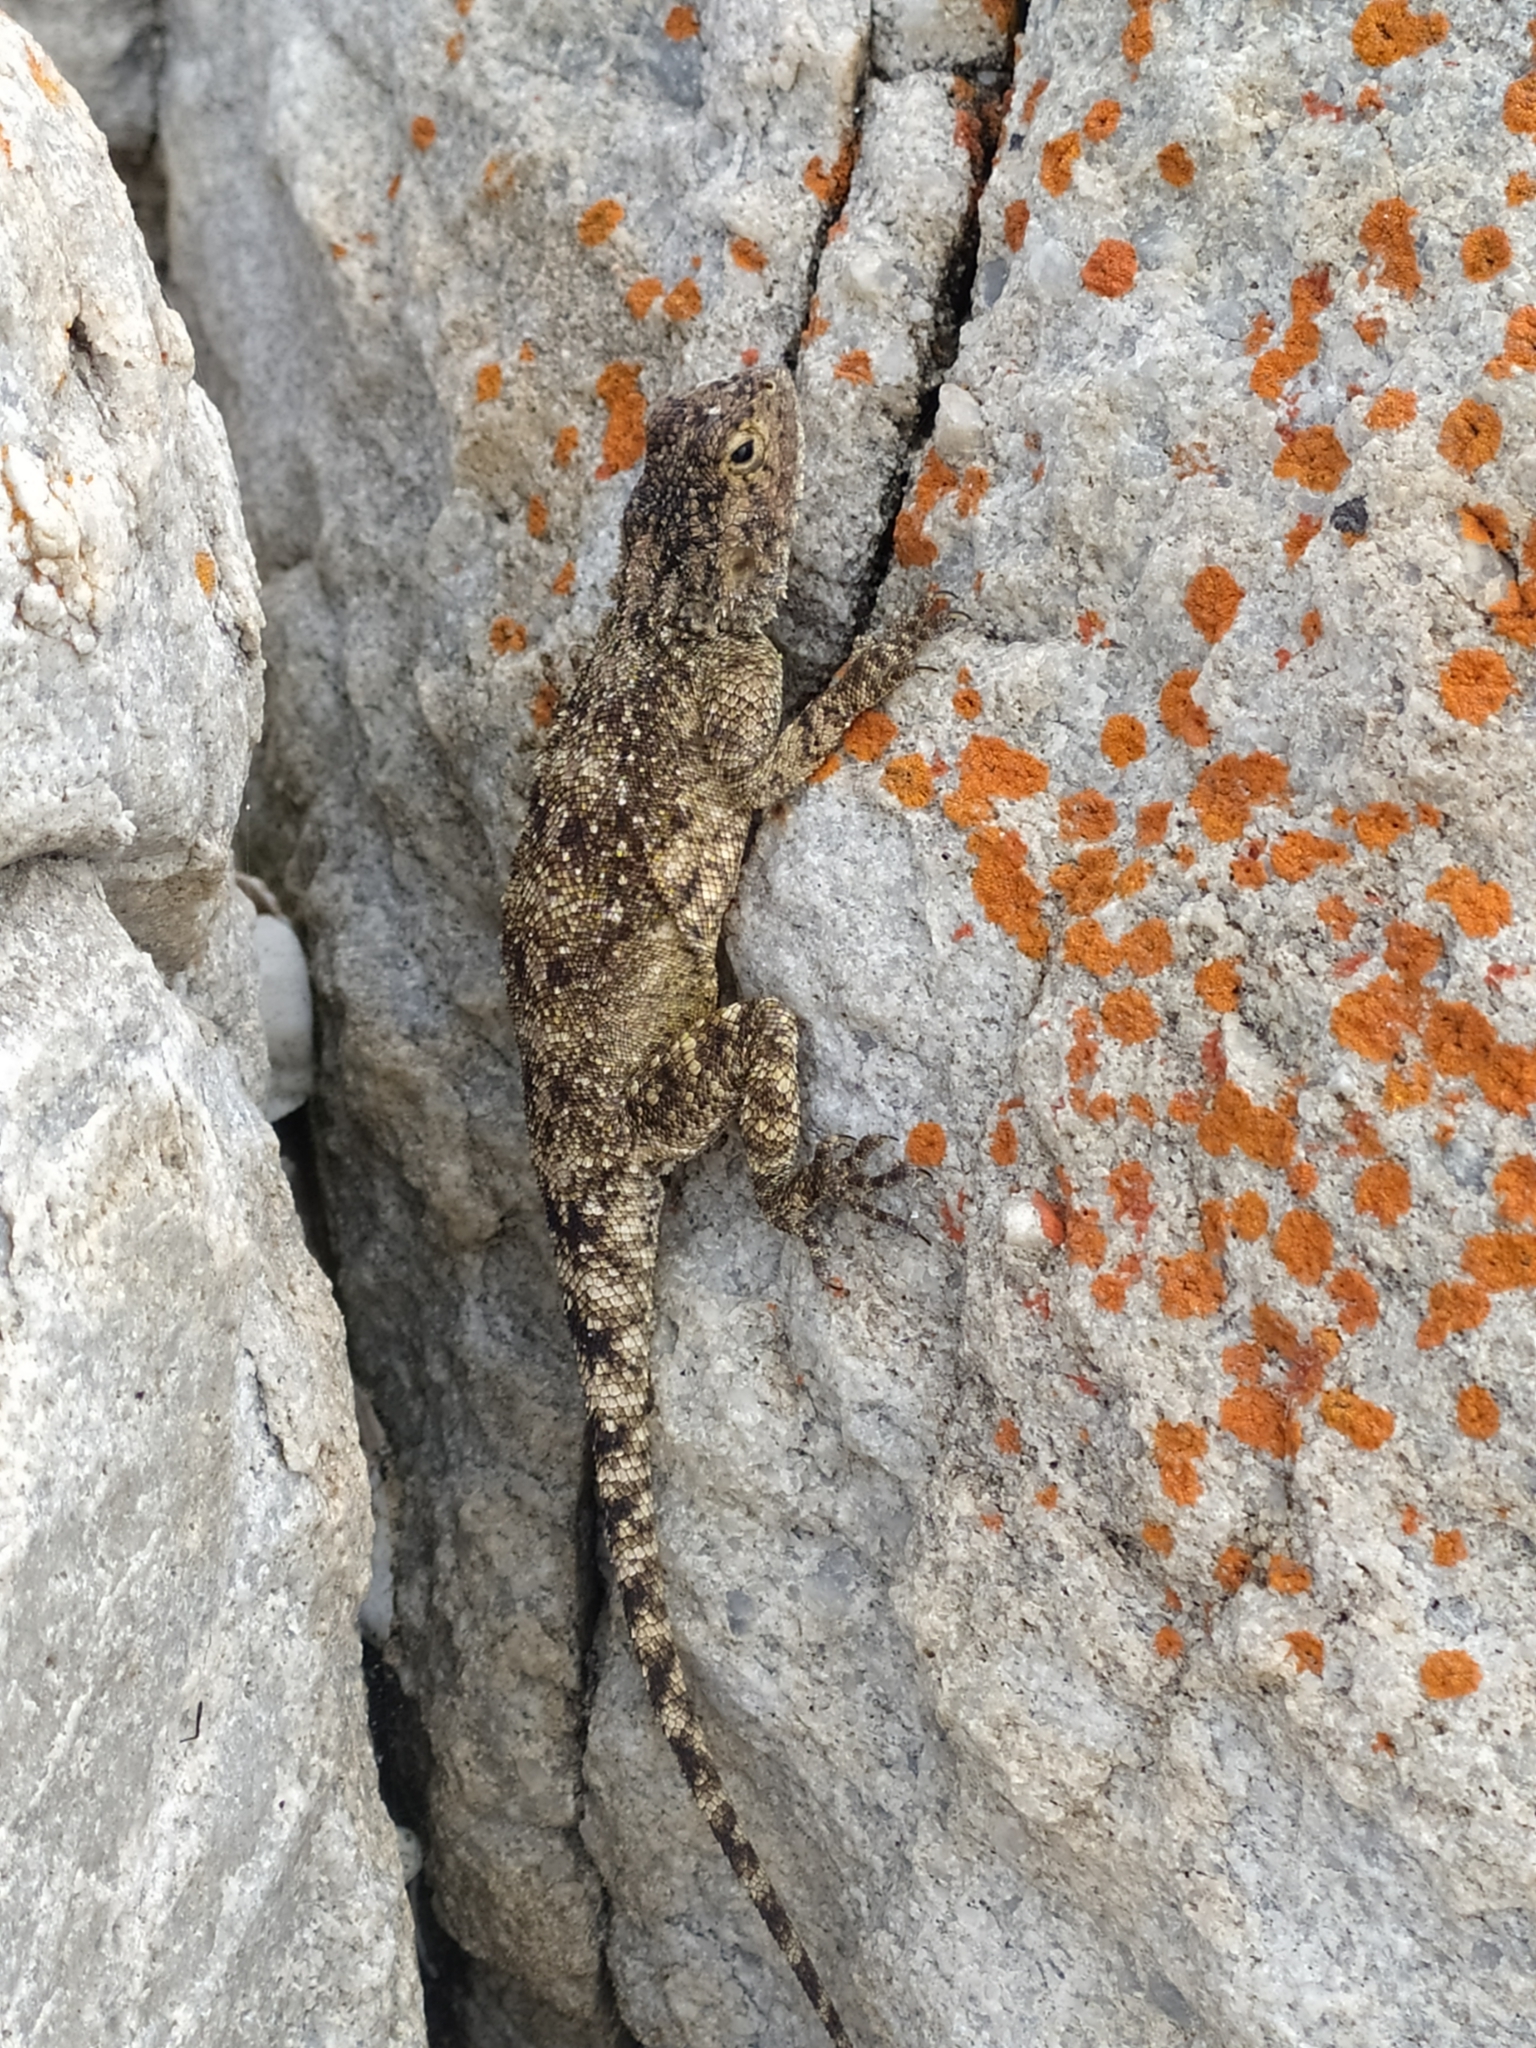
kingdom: Animalia
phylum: Chordata
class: Squamata
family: Agamidae
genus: Agama
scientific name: Agama atra
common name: Southern african rock agama
